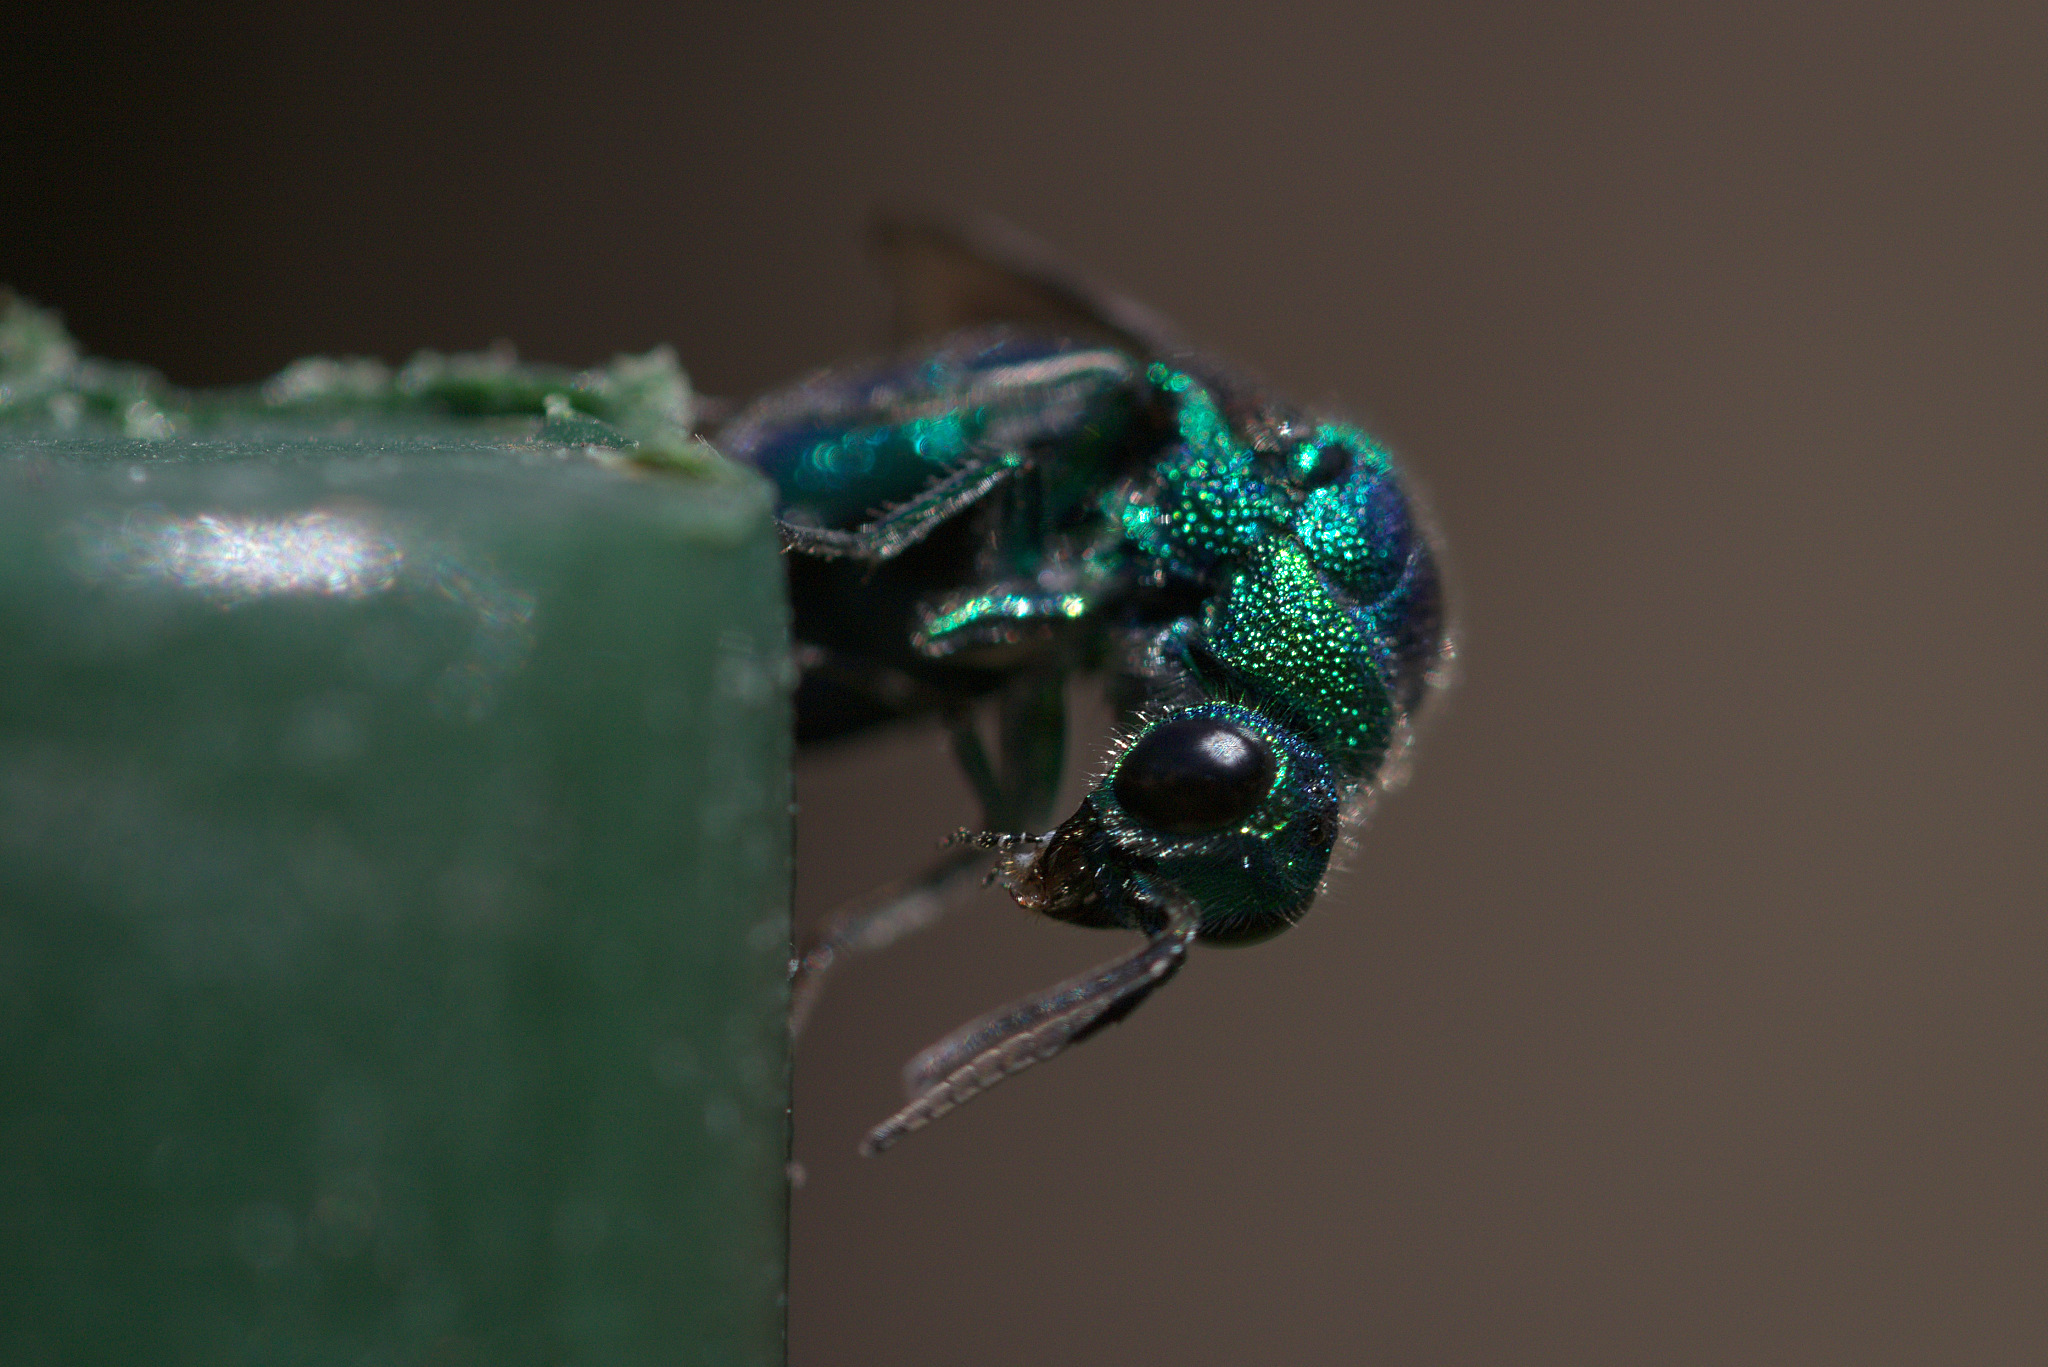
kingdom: Animalia
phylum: Arthropoda
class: Insecta
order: Hymenoptera
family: Chrysididae
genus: Chrysis
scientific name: Chrysis angolensis
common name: Cuckoo wasp
